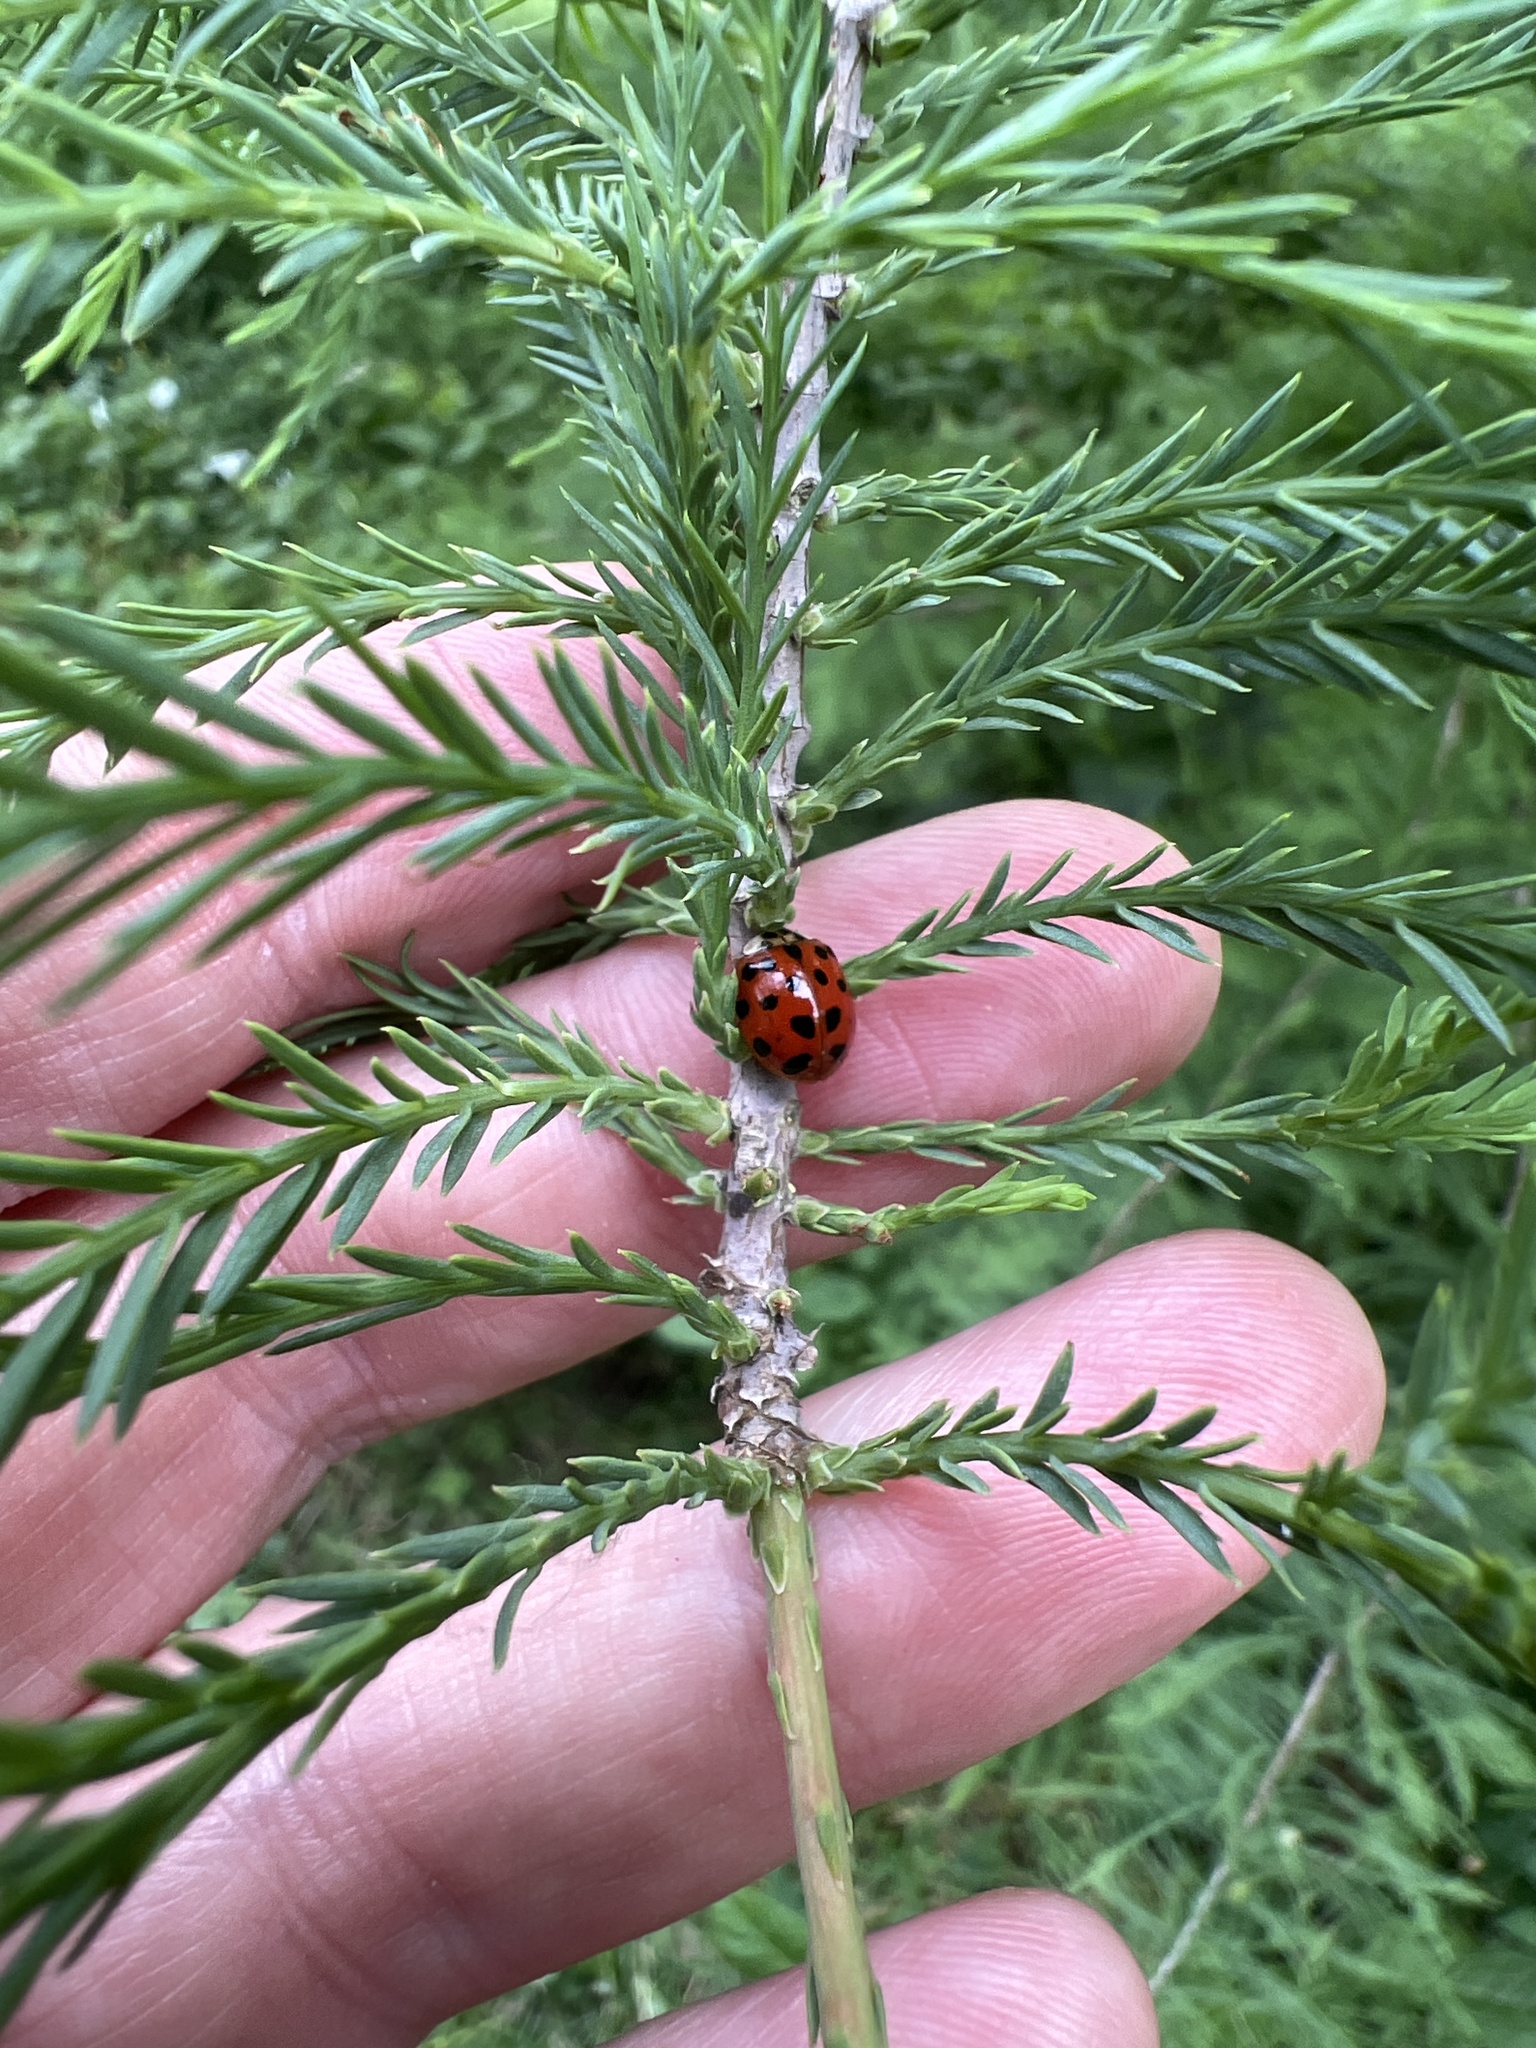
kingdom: Animalia
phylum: Arthropoda
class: Insecta
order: Coleoptera
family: Coccinellidae
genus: Harmonia
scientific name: Harmonia axyridis
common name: Harlequin ladybird
